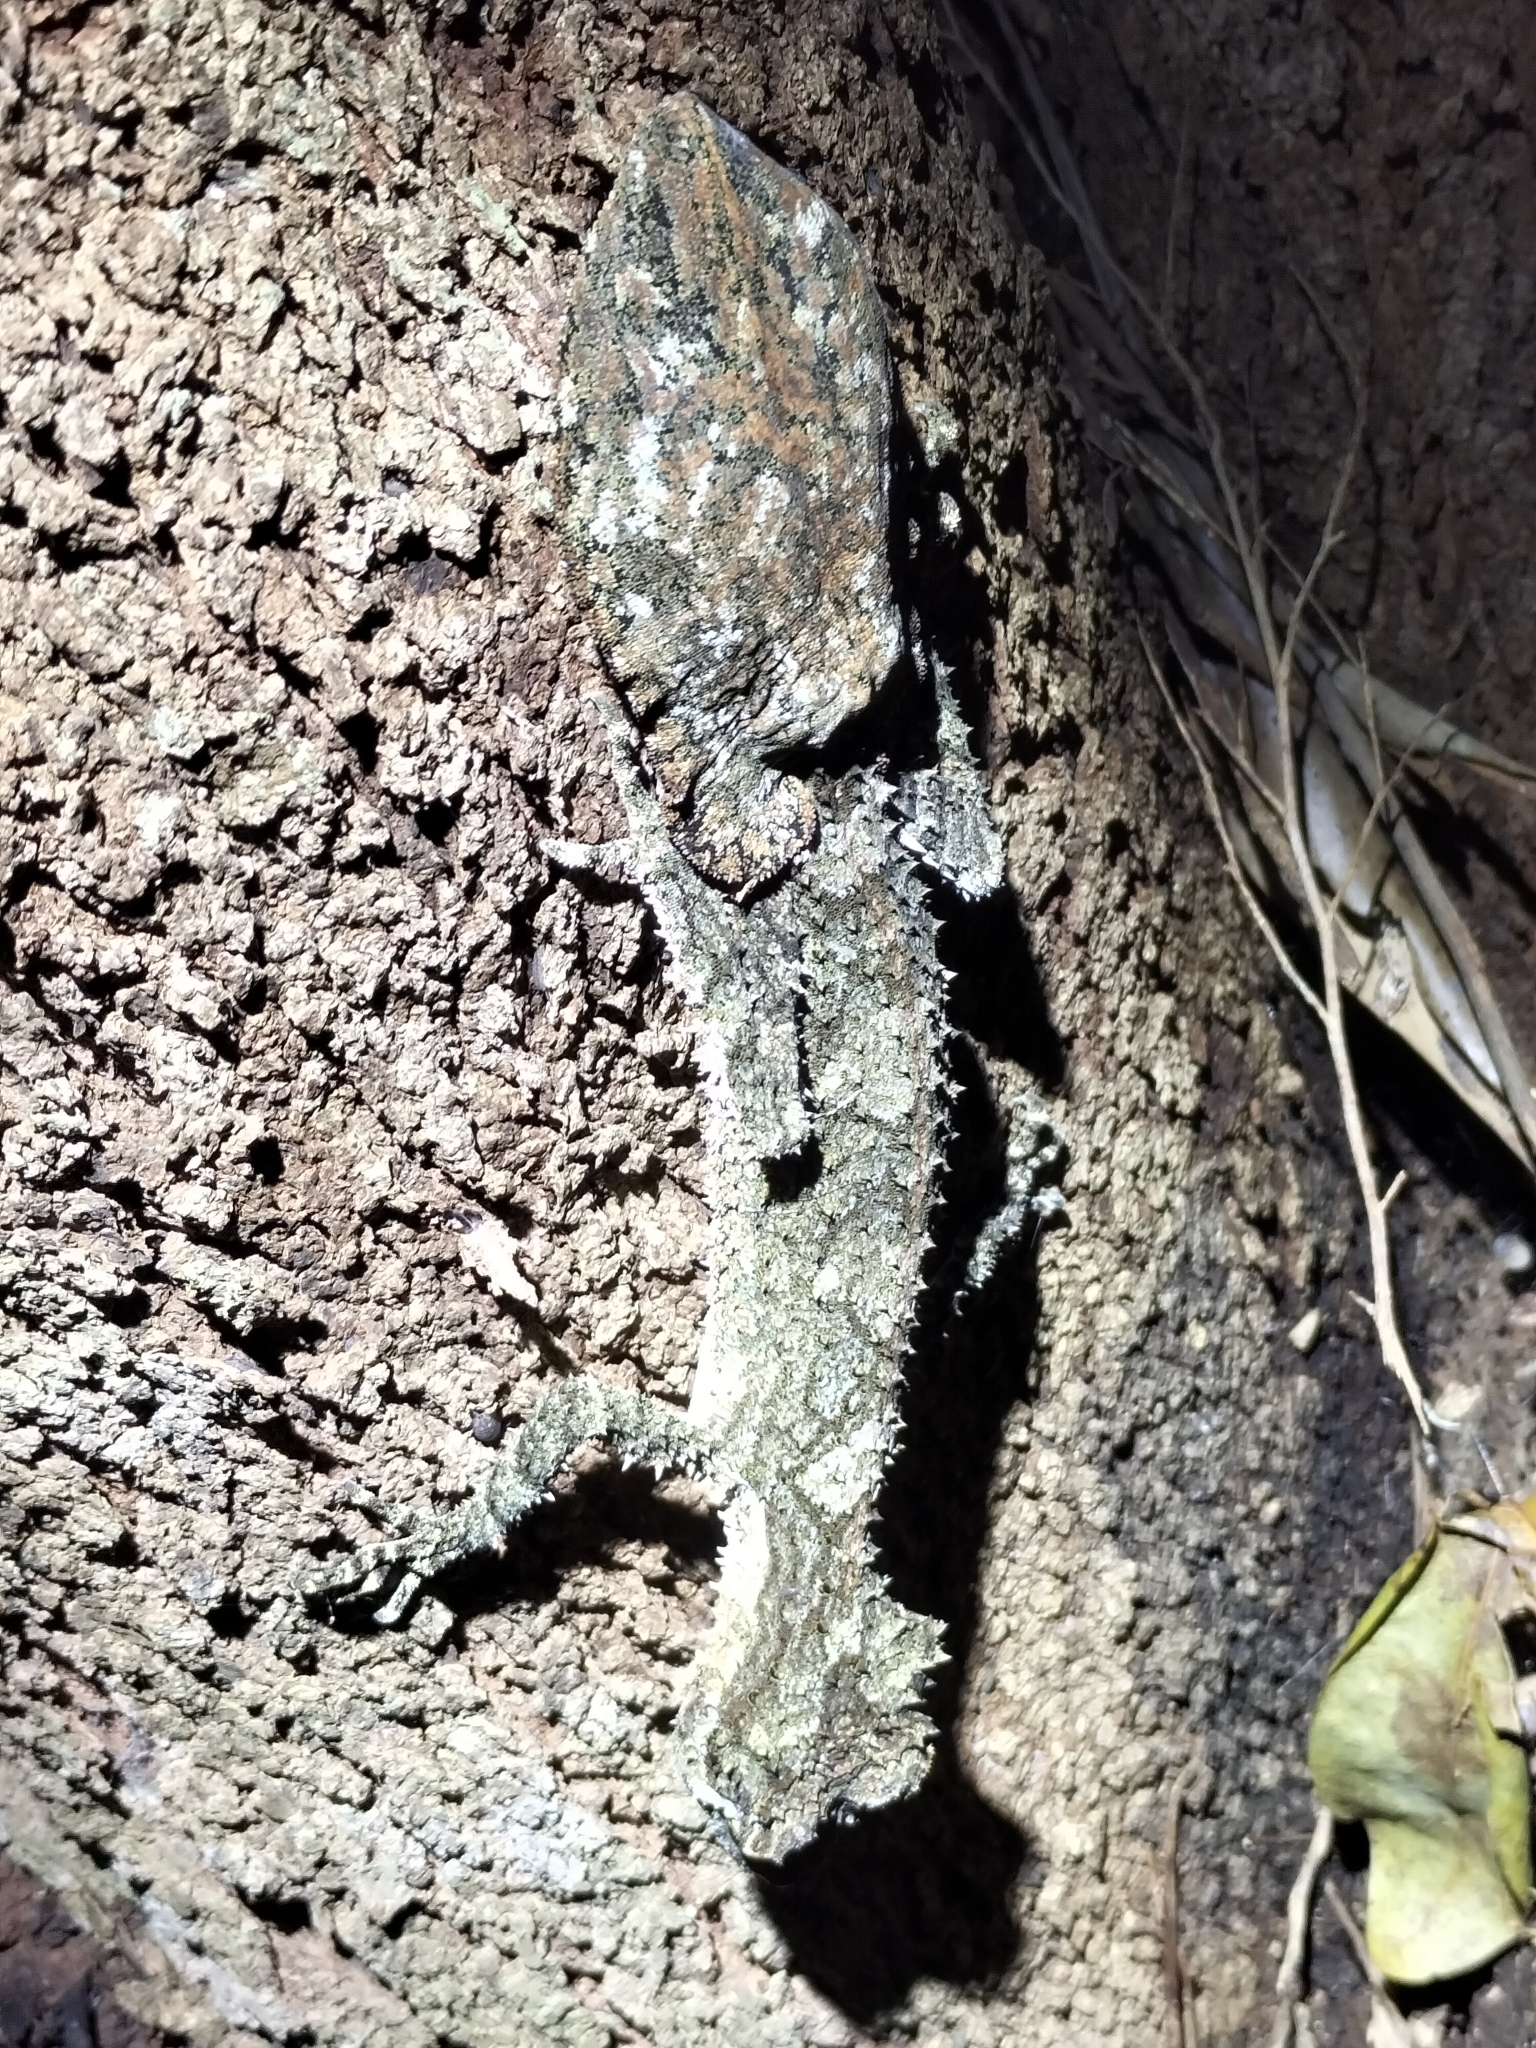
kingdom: Animalia
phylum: Chordata
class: Squamata
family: Carphodactylidae
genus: Saltuarius
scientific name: Saltuarius cornutus
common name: Leaf-tailed gecko
